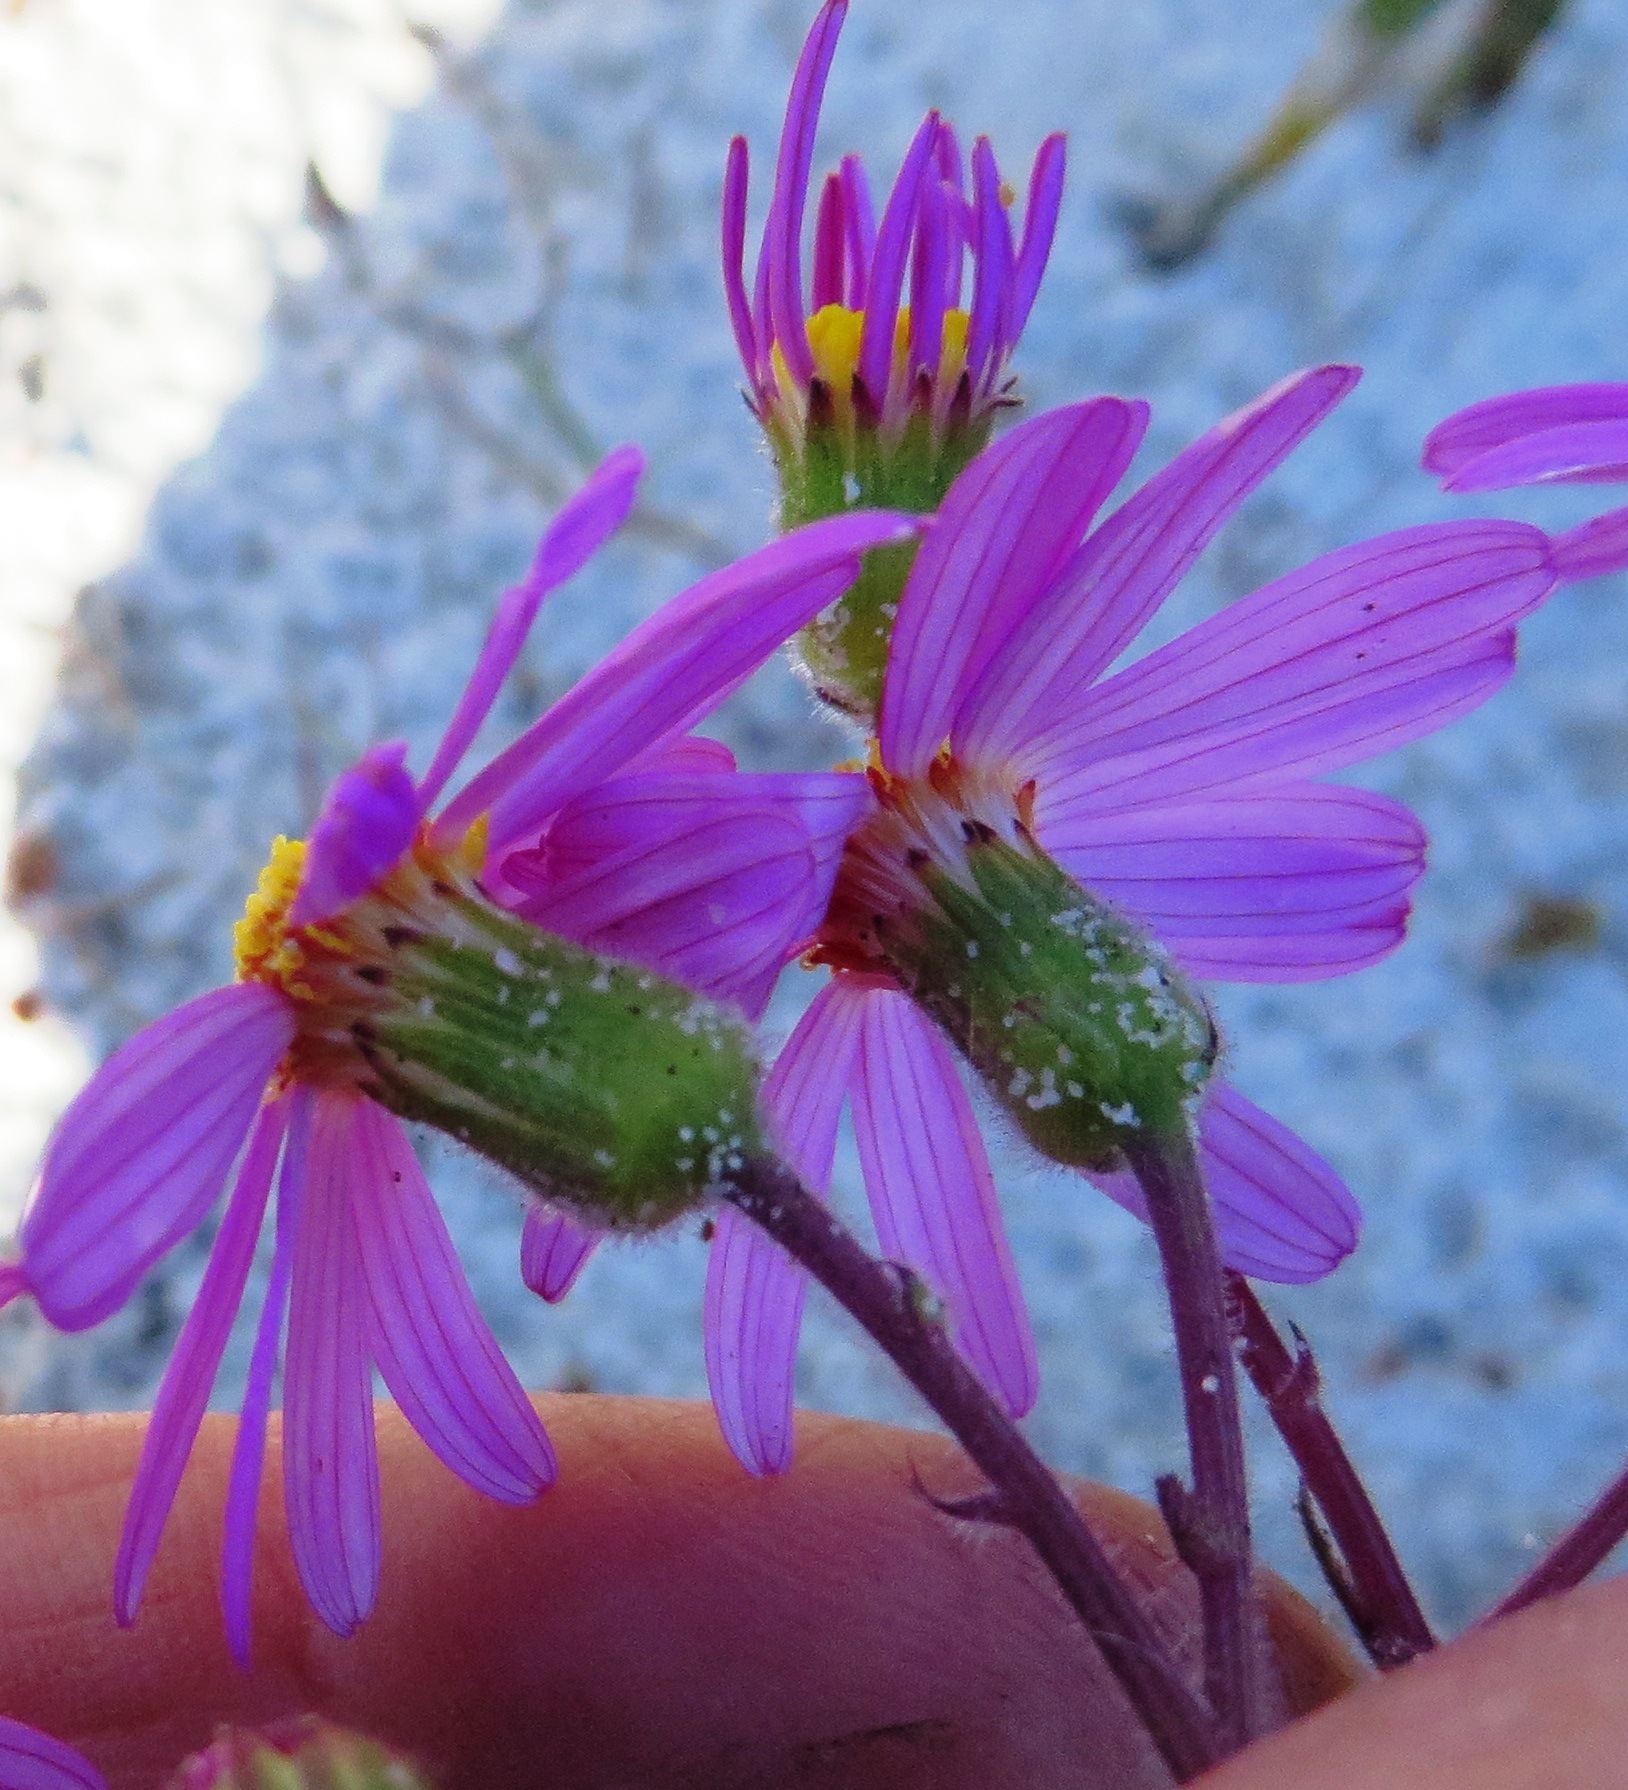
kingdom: Plantae
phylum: Tracheophyta
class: Magnoliopsida
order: Asterales
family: Asteraceae
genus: Senecio
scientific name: Senecio arenarius
